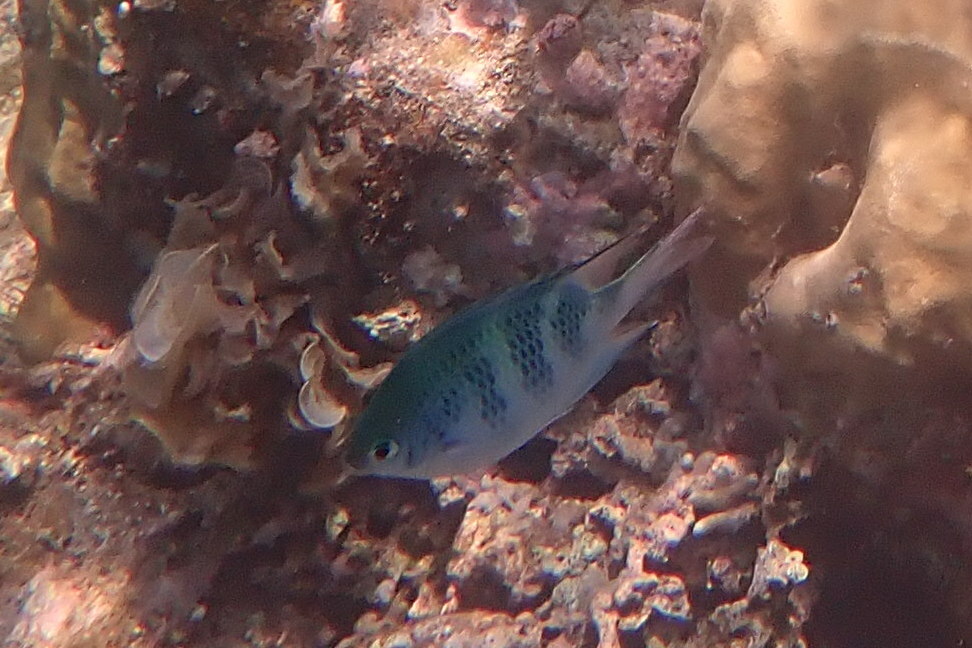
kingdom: Animalia
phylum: Chordata
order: Perciformes
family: Pomacentridae
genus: Amblyglyphidodon
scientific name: Amblyglyphidodon curacao
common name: Staghorn damsel
